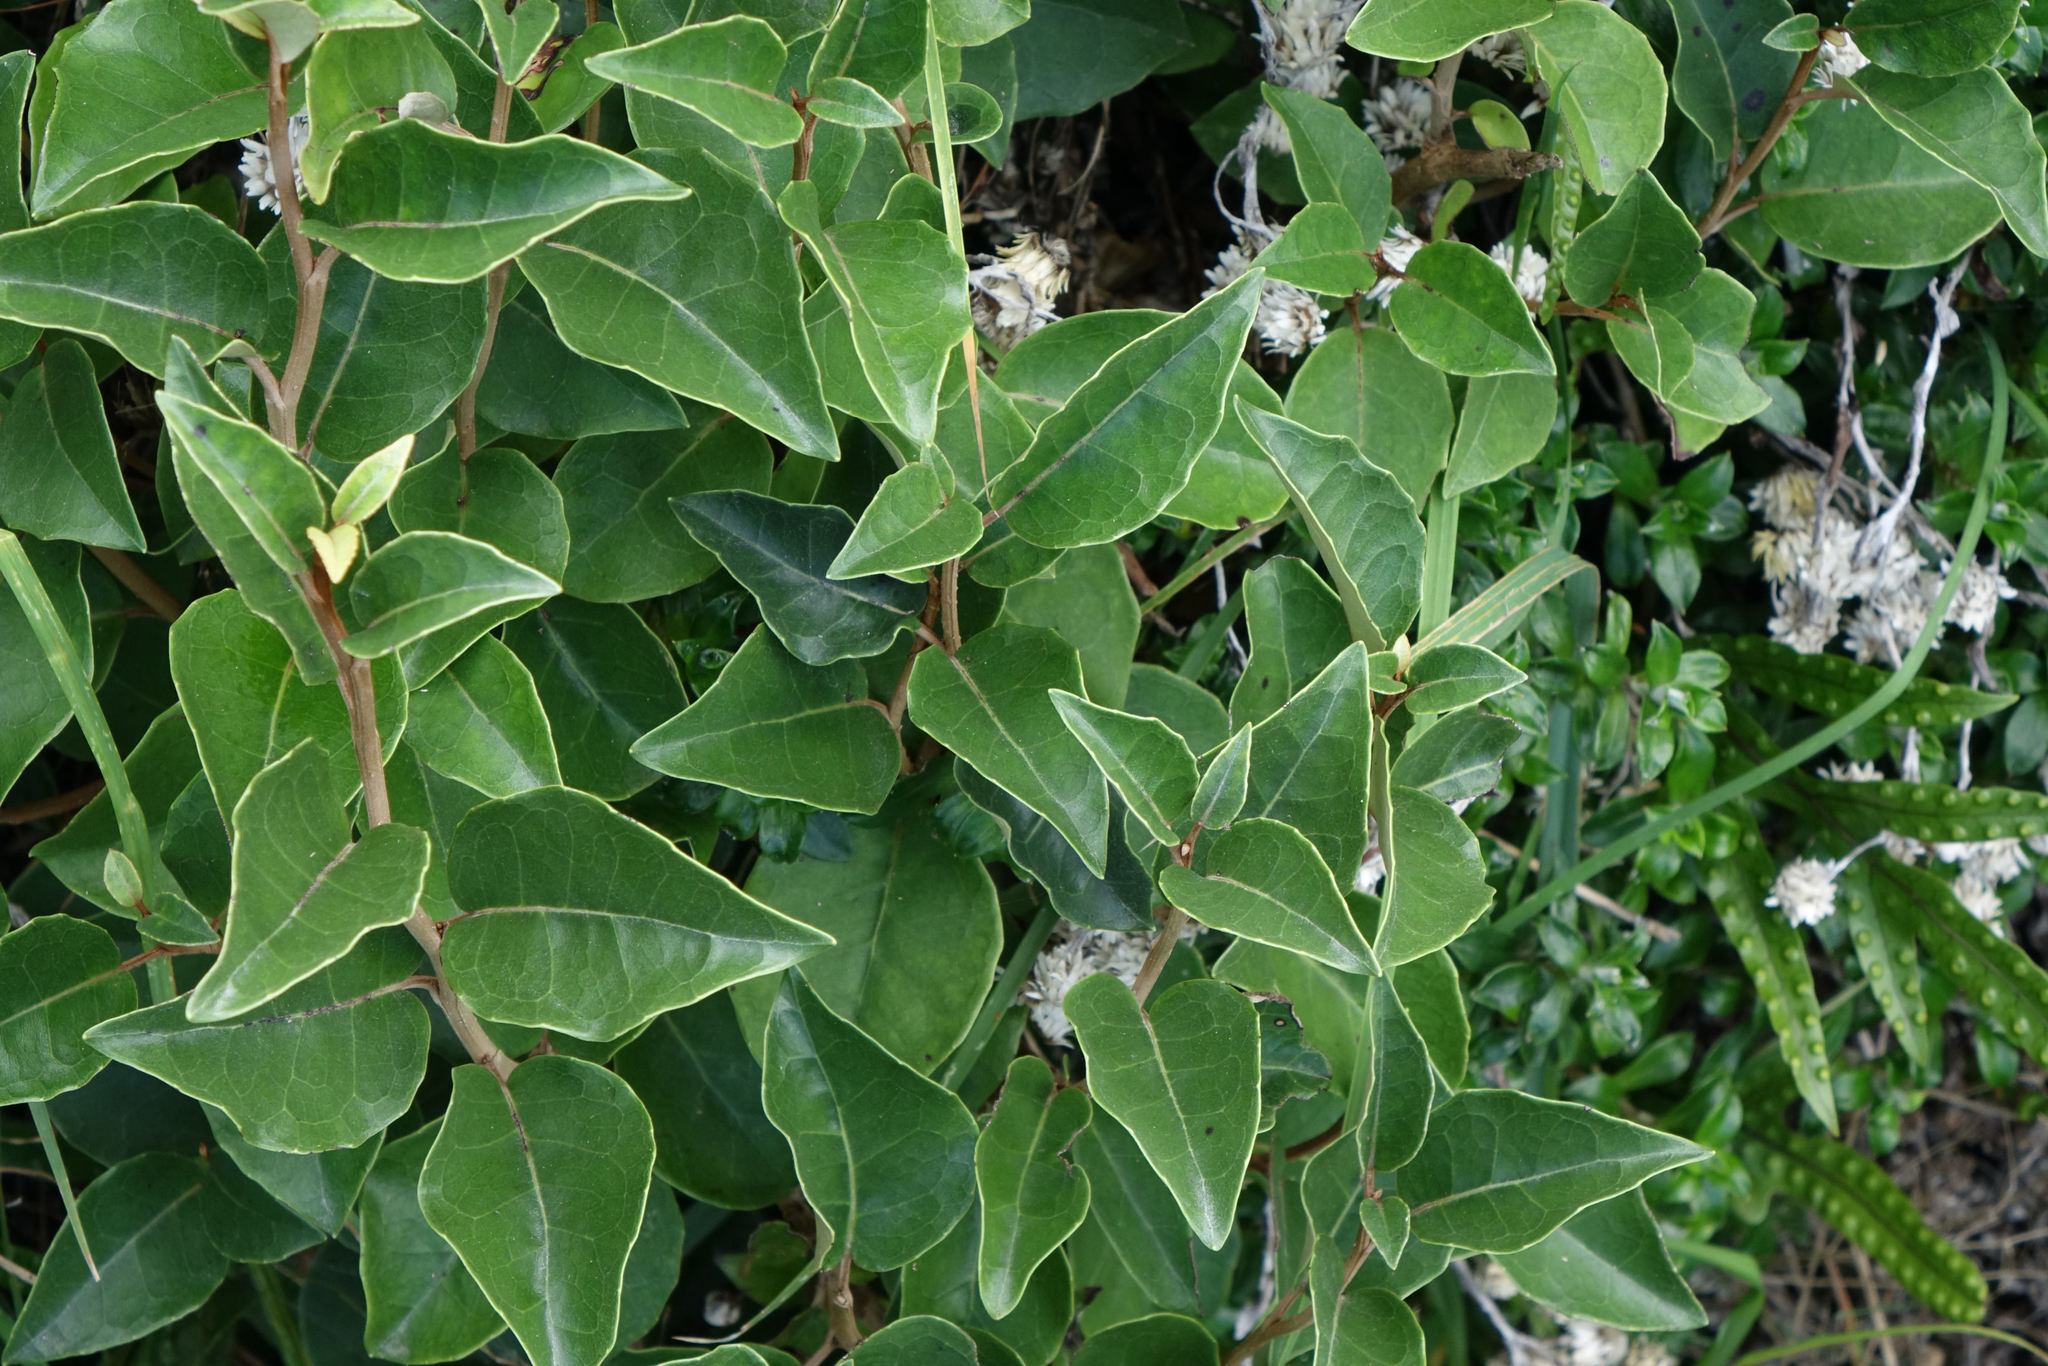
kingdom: Plantae
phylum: Tracheophyta
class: Magnoliopsida
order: Asterales
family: Asteraceae
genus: Olearia
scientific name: Olearia arborescens
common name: Glossy tree daisy
